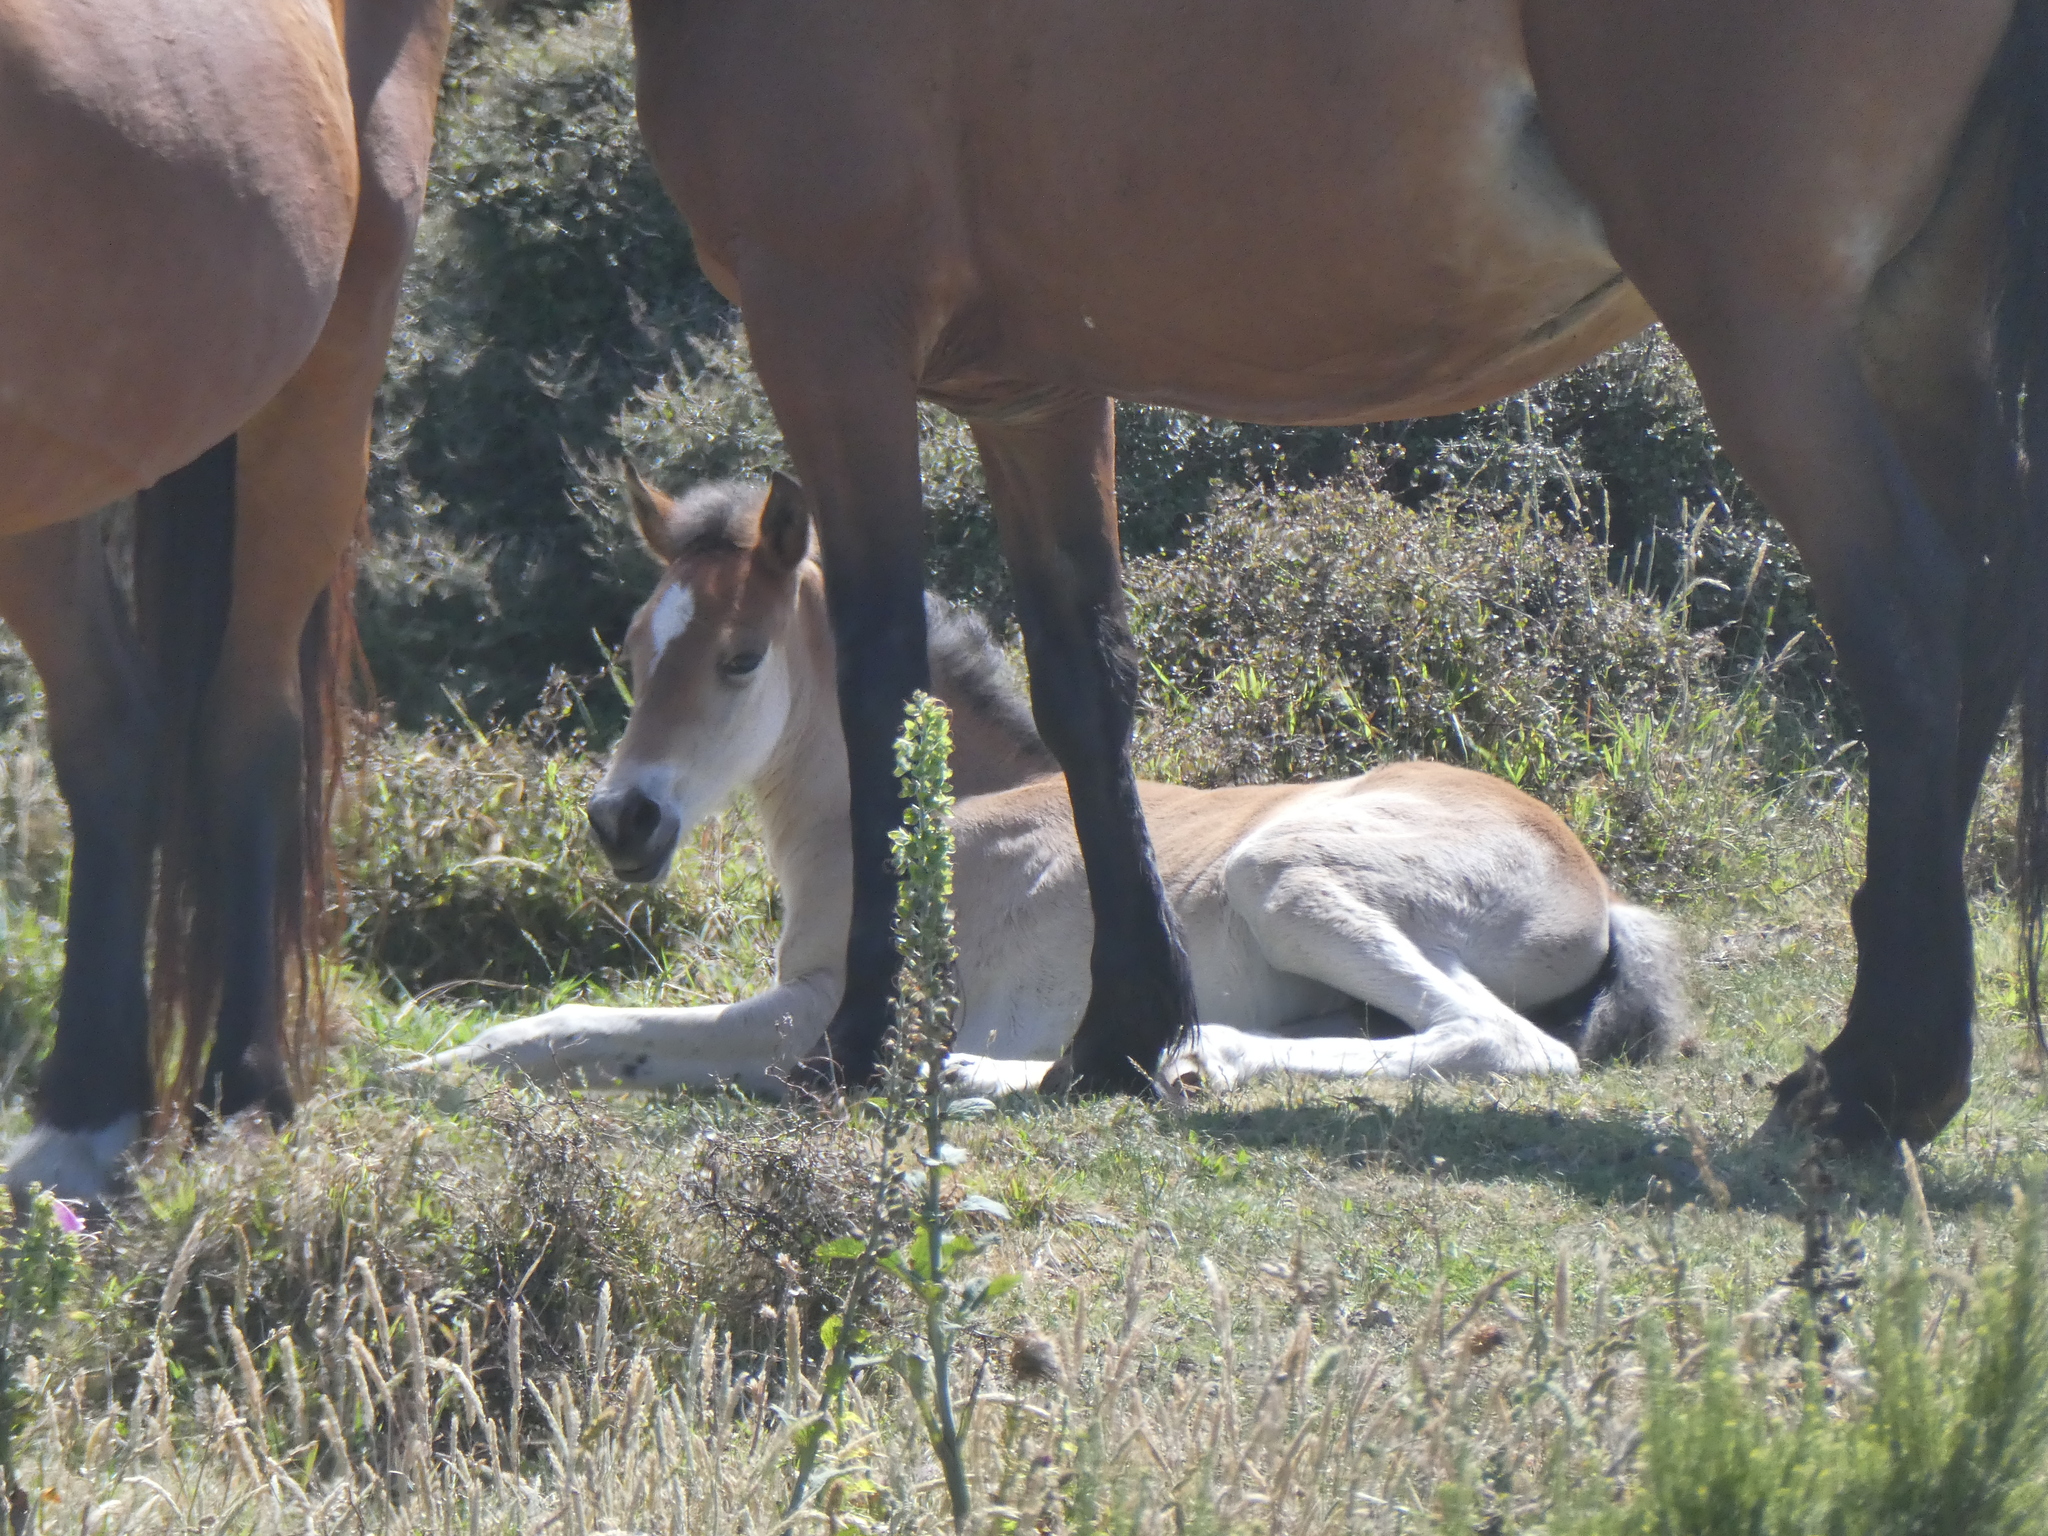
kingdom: Animalia
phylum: Chordata
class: Mammalia
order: Perissodactyla
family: Equidae
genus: Equus
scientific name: Equus caballus
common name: Horse
